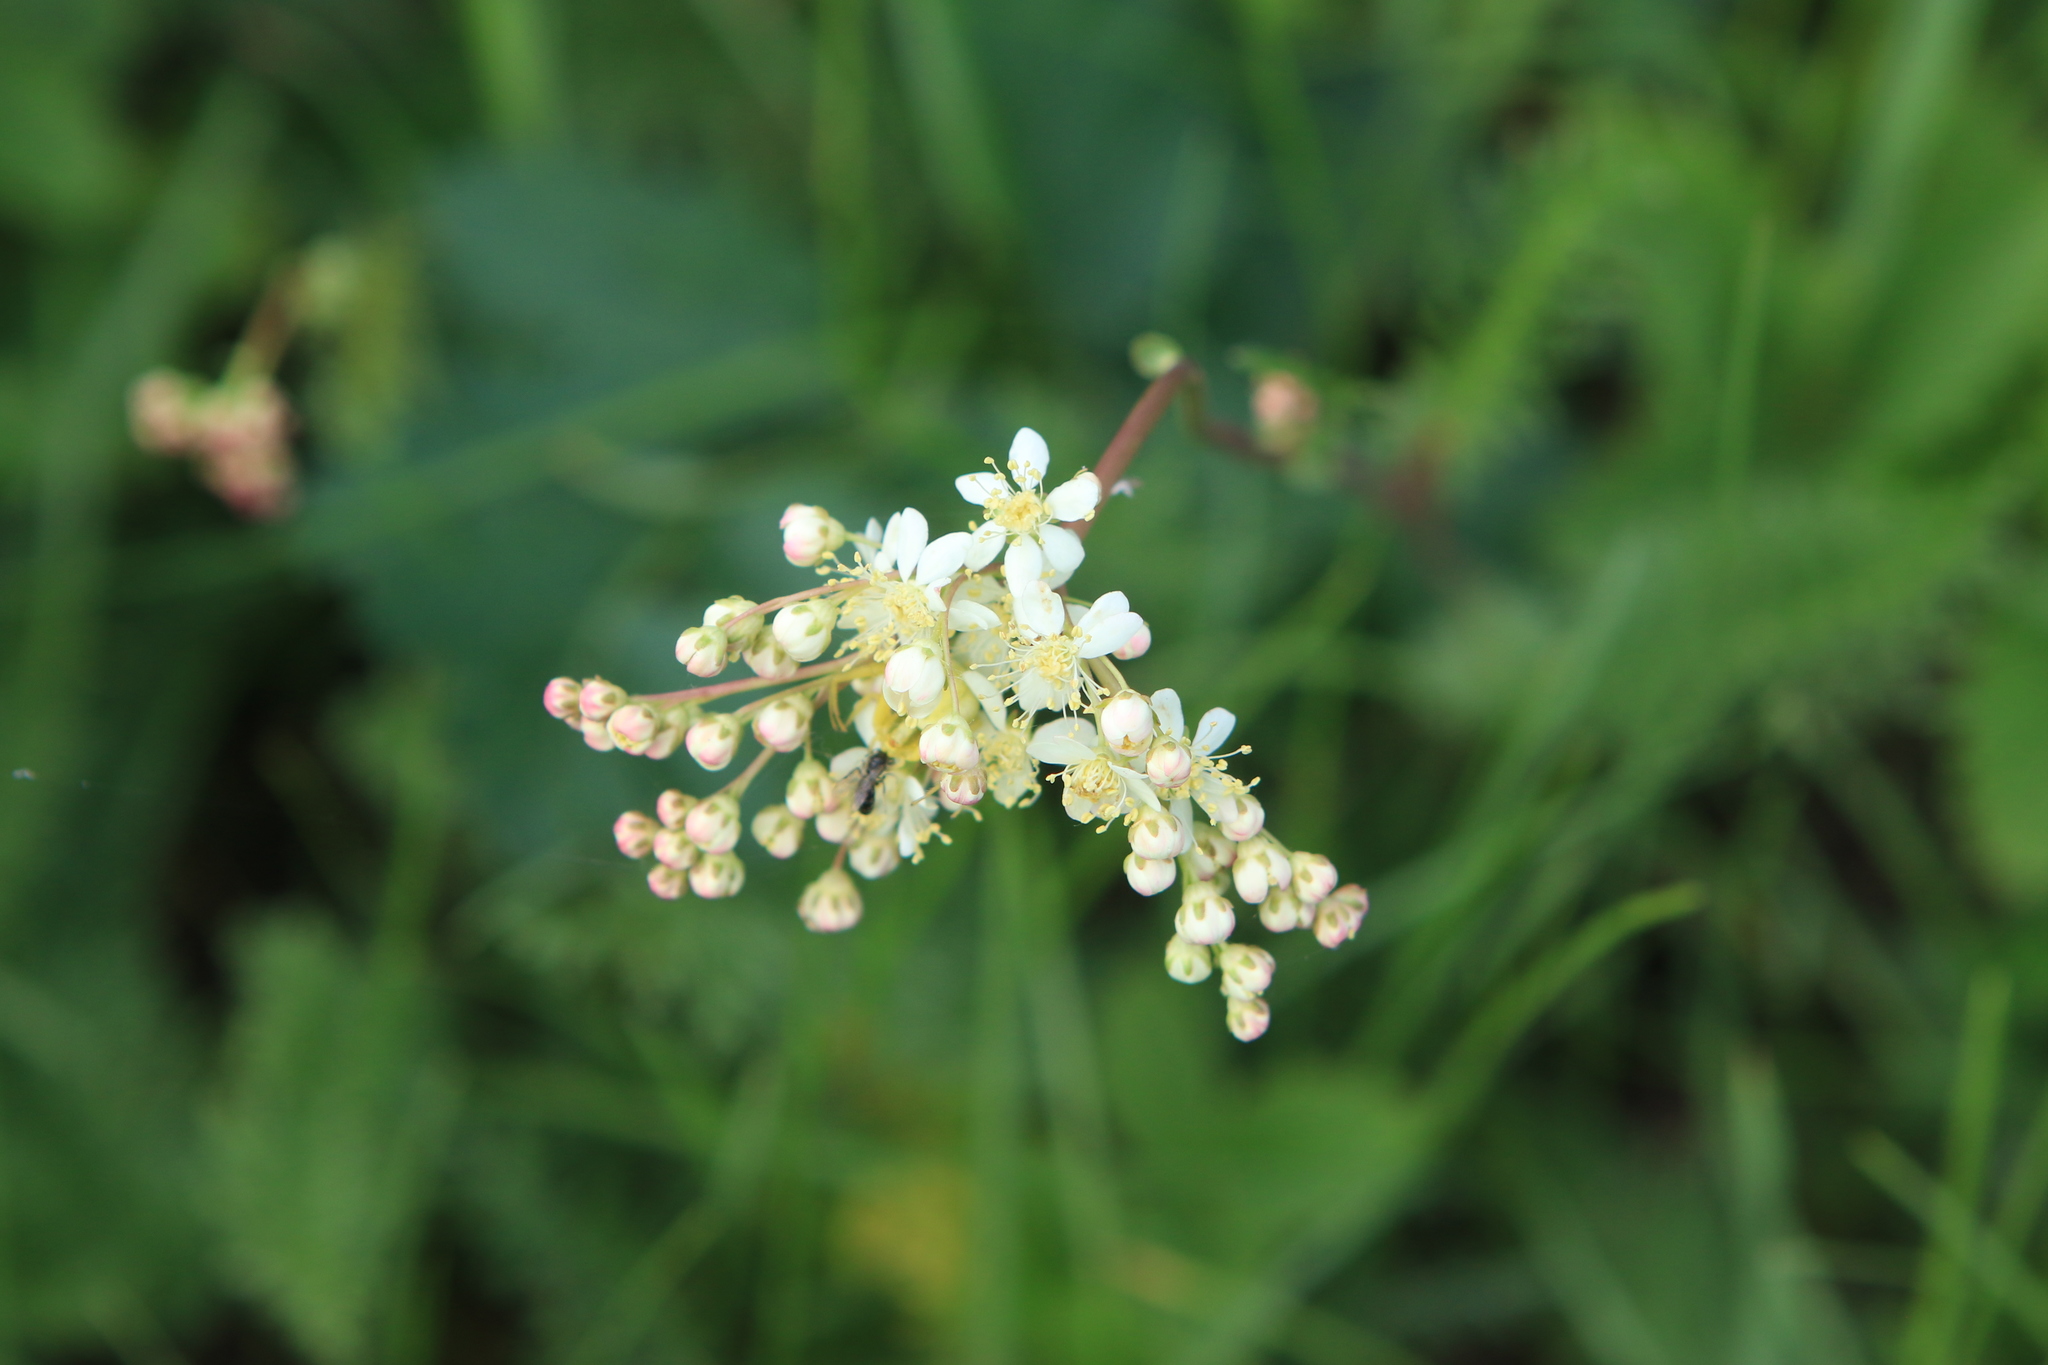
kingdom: Plantae
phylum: Tracheophyta
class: Magnoliopsida
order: Rosales
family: Rosaceae
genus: Filipendula
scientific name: Filipendula vulgaris
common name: Dropwort
